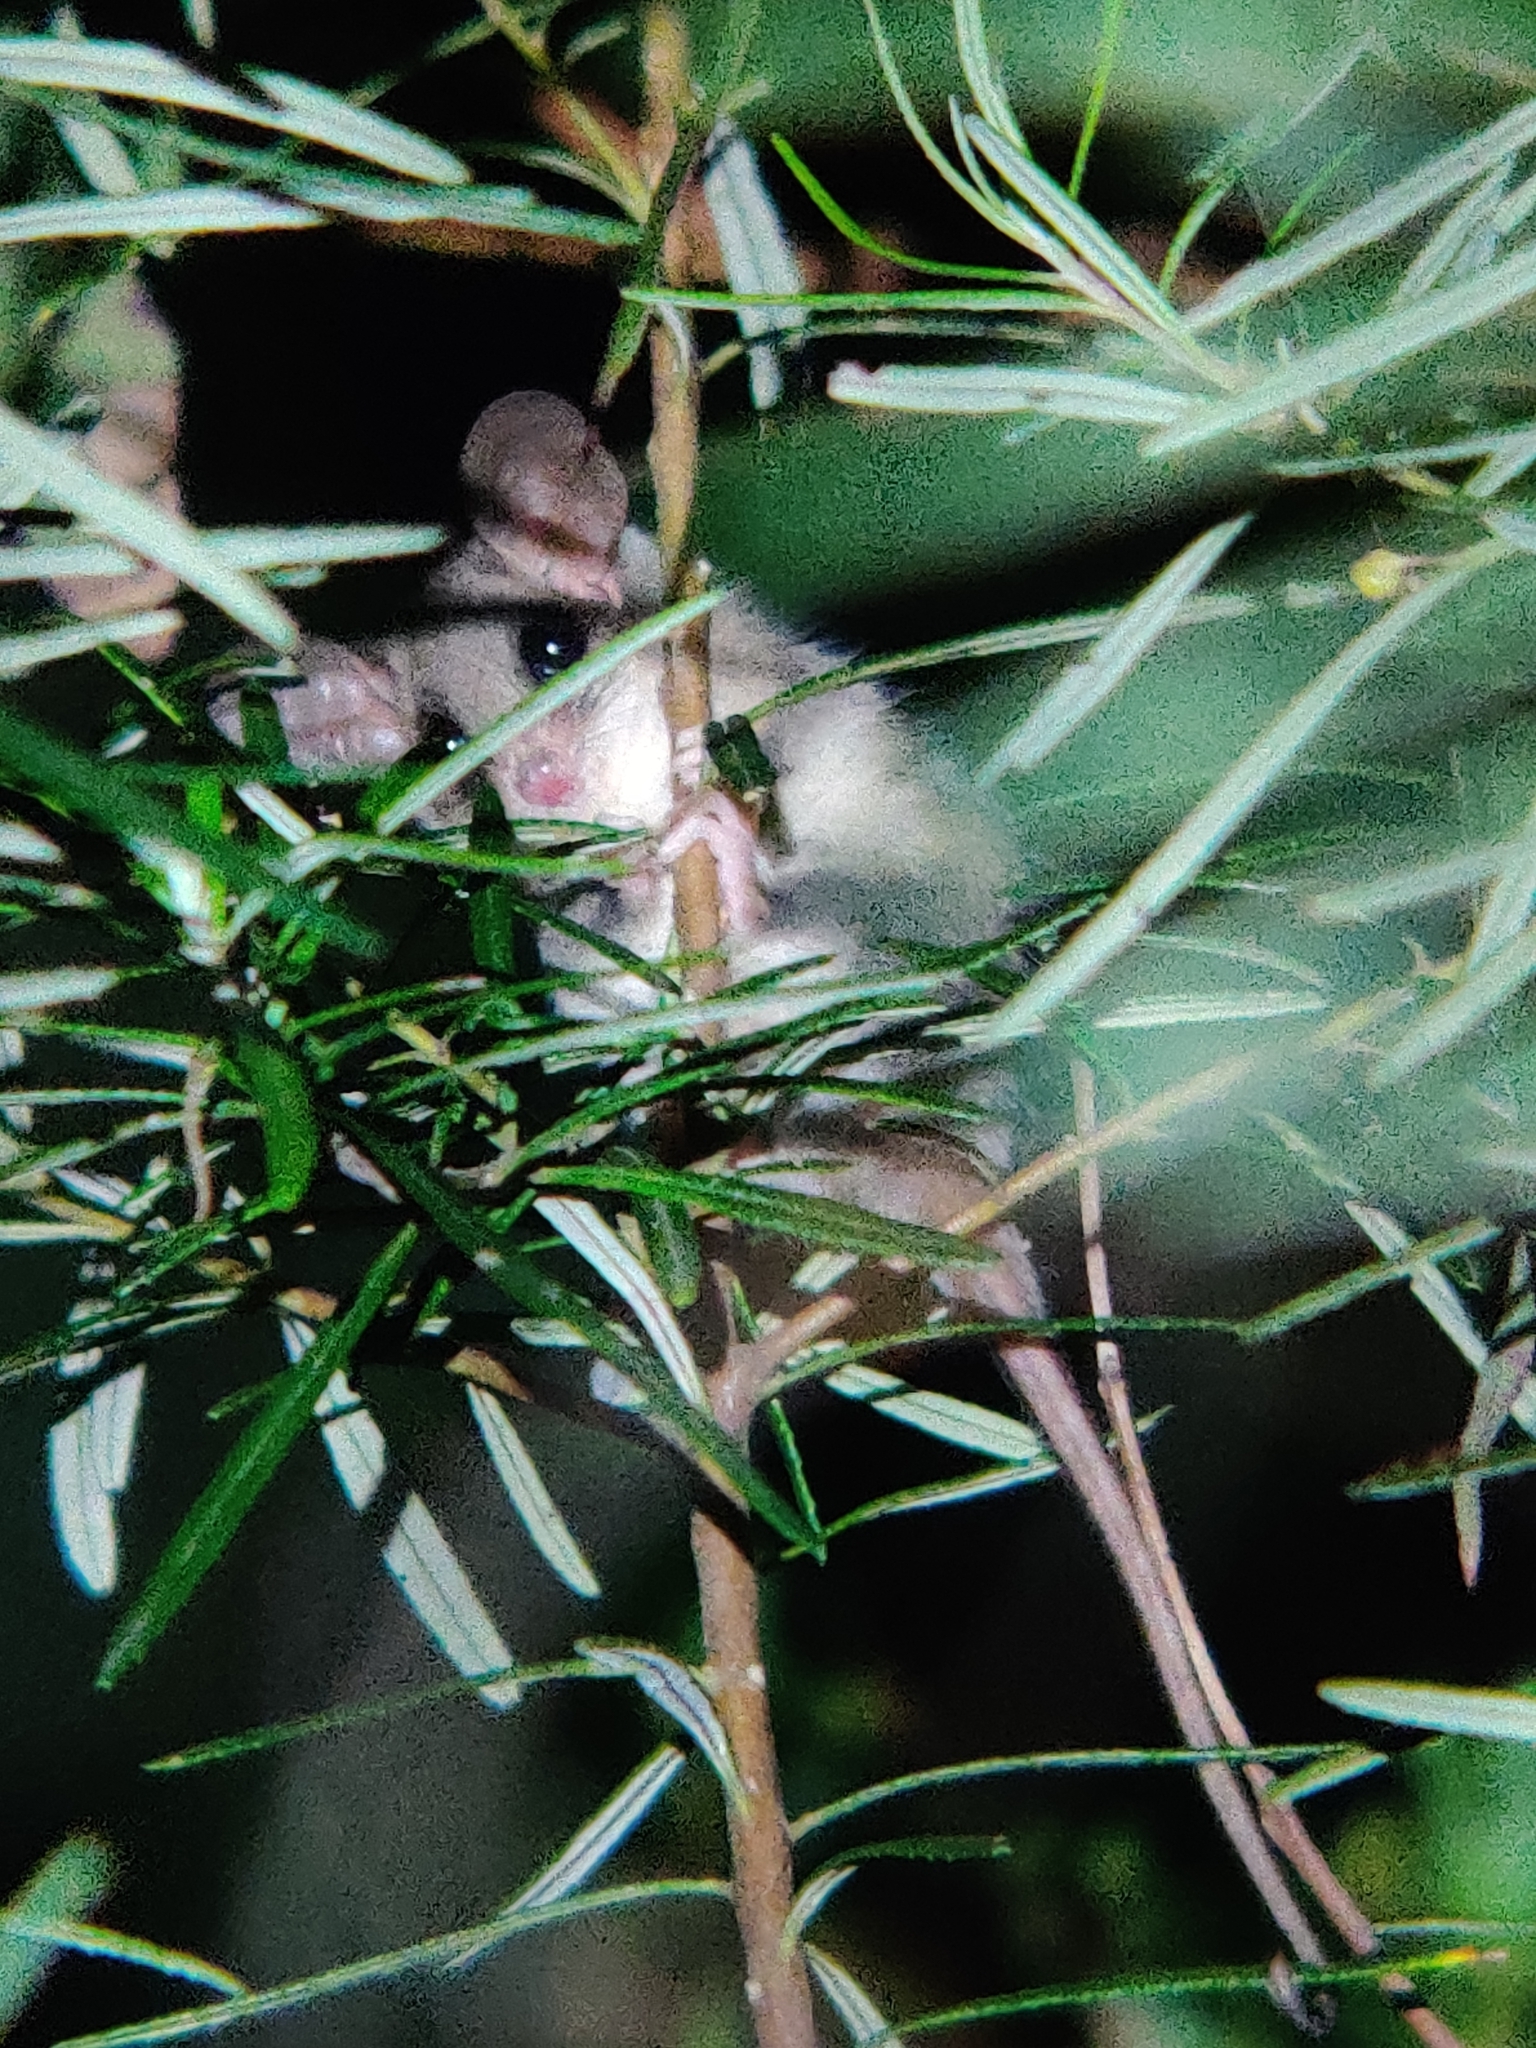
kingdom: Animalia
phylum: Chordata
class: Mammalia
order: Diprotodontia
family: Burramyidae
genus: Cercartetus
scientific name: Cercartetus nanus
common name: Eastern pygmy possum
